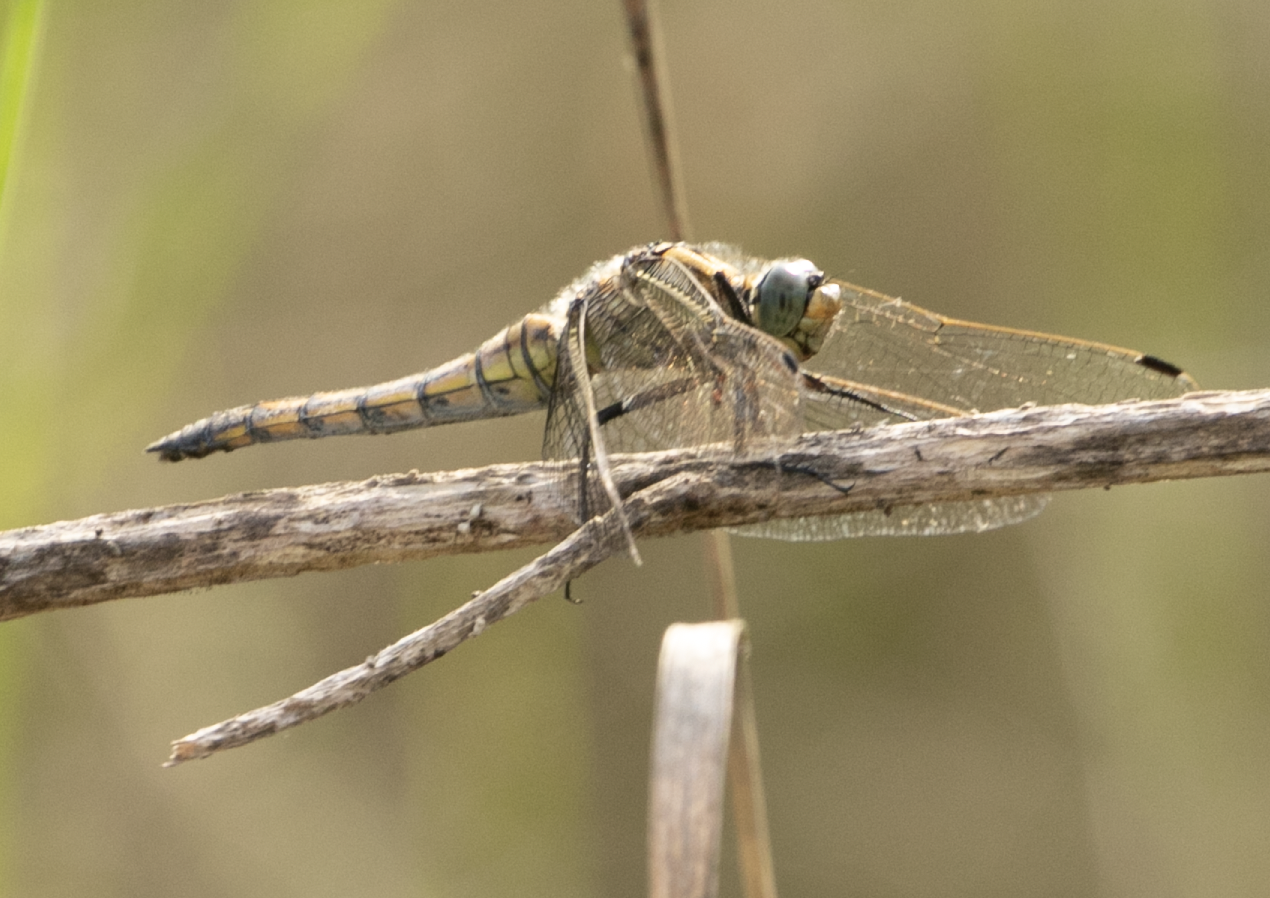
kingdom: Animalia
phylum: Arthropoda
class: Insecta
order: Odonata
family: Libellulidae
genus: Orthetrum
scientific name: Orthetrum cancellatum
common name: Black-tailed skimmer
